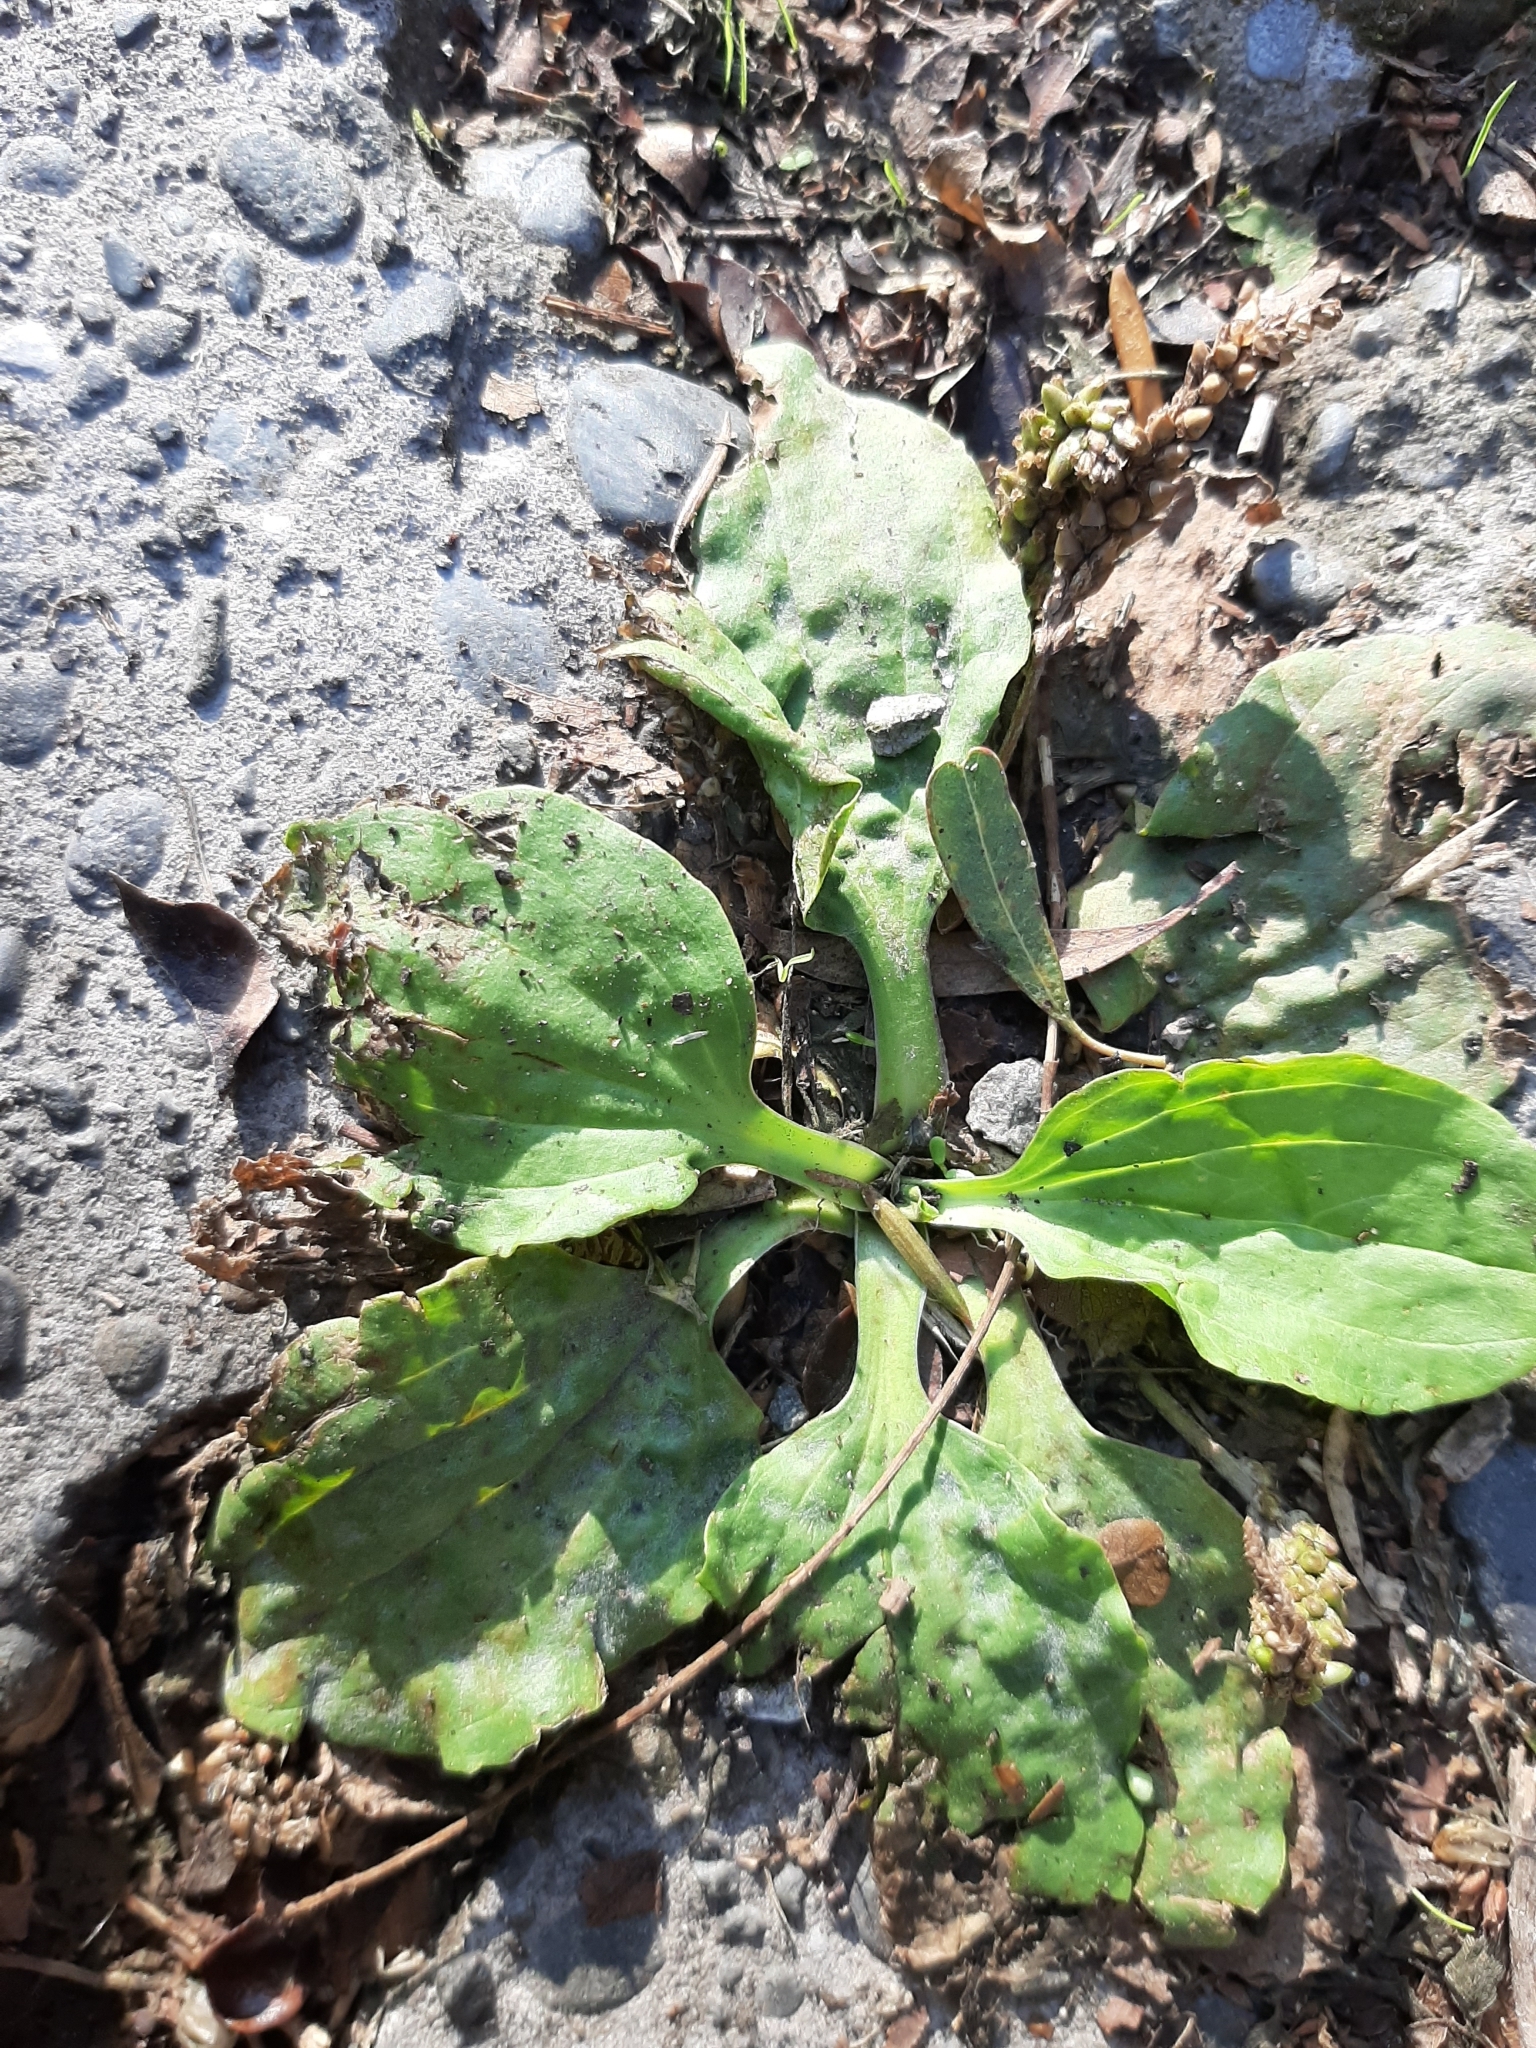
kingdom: Plantae
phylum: Tracheophyta
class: Magnoliopsida
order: Lamiales
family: Plantaginaceae
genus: Plantago
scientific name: Plantago major
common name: Common plantain
